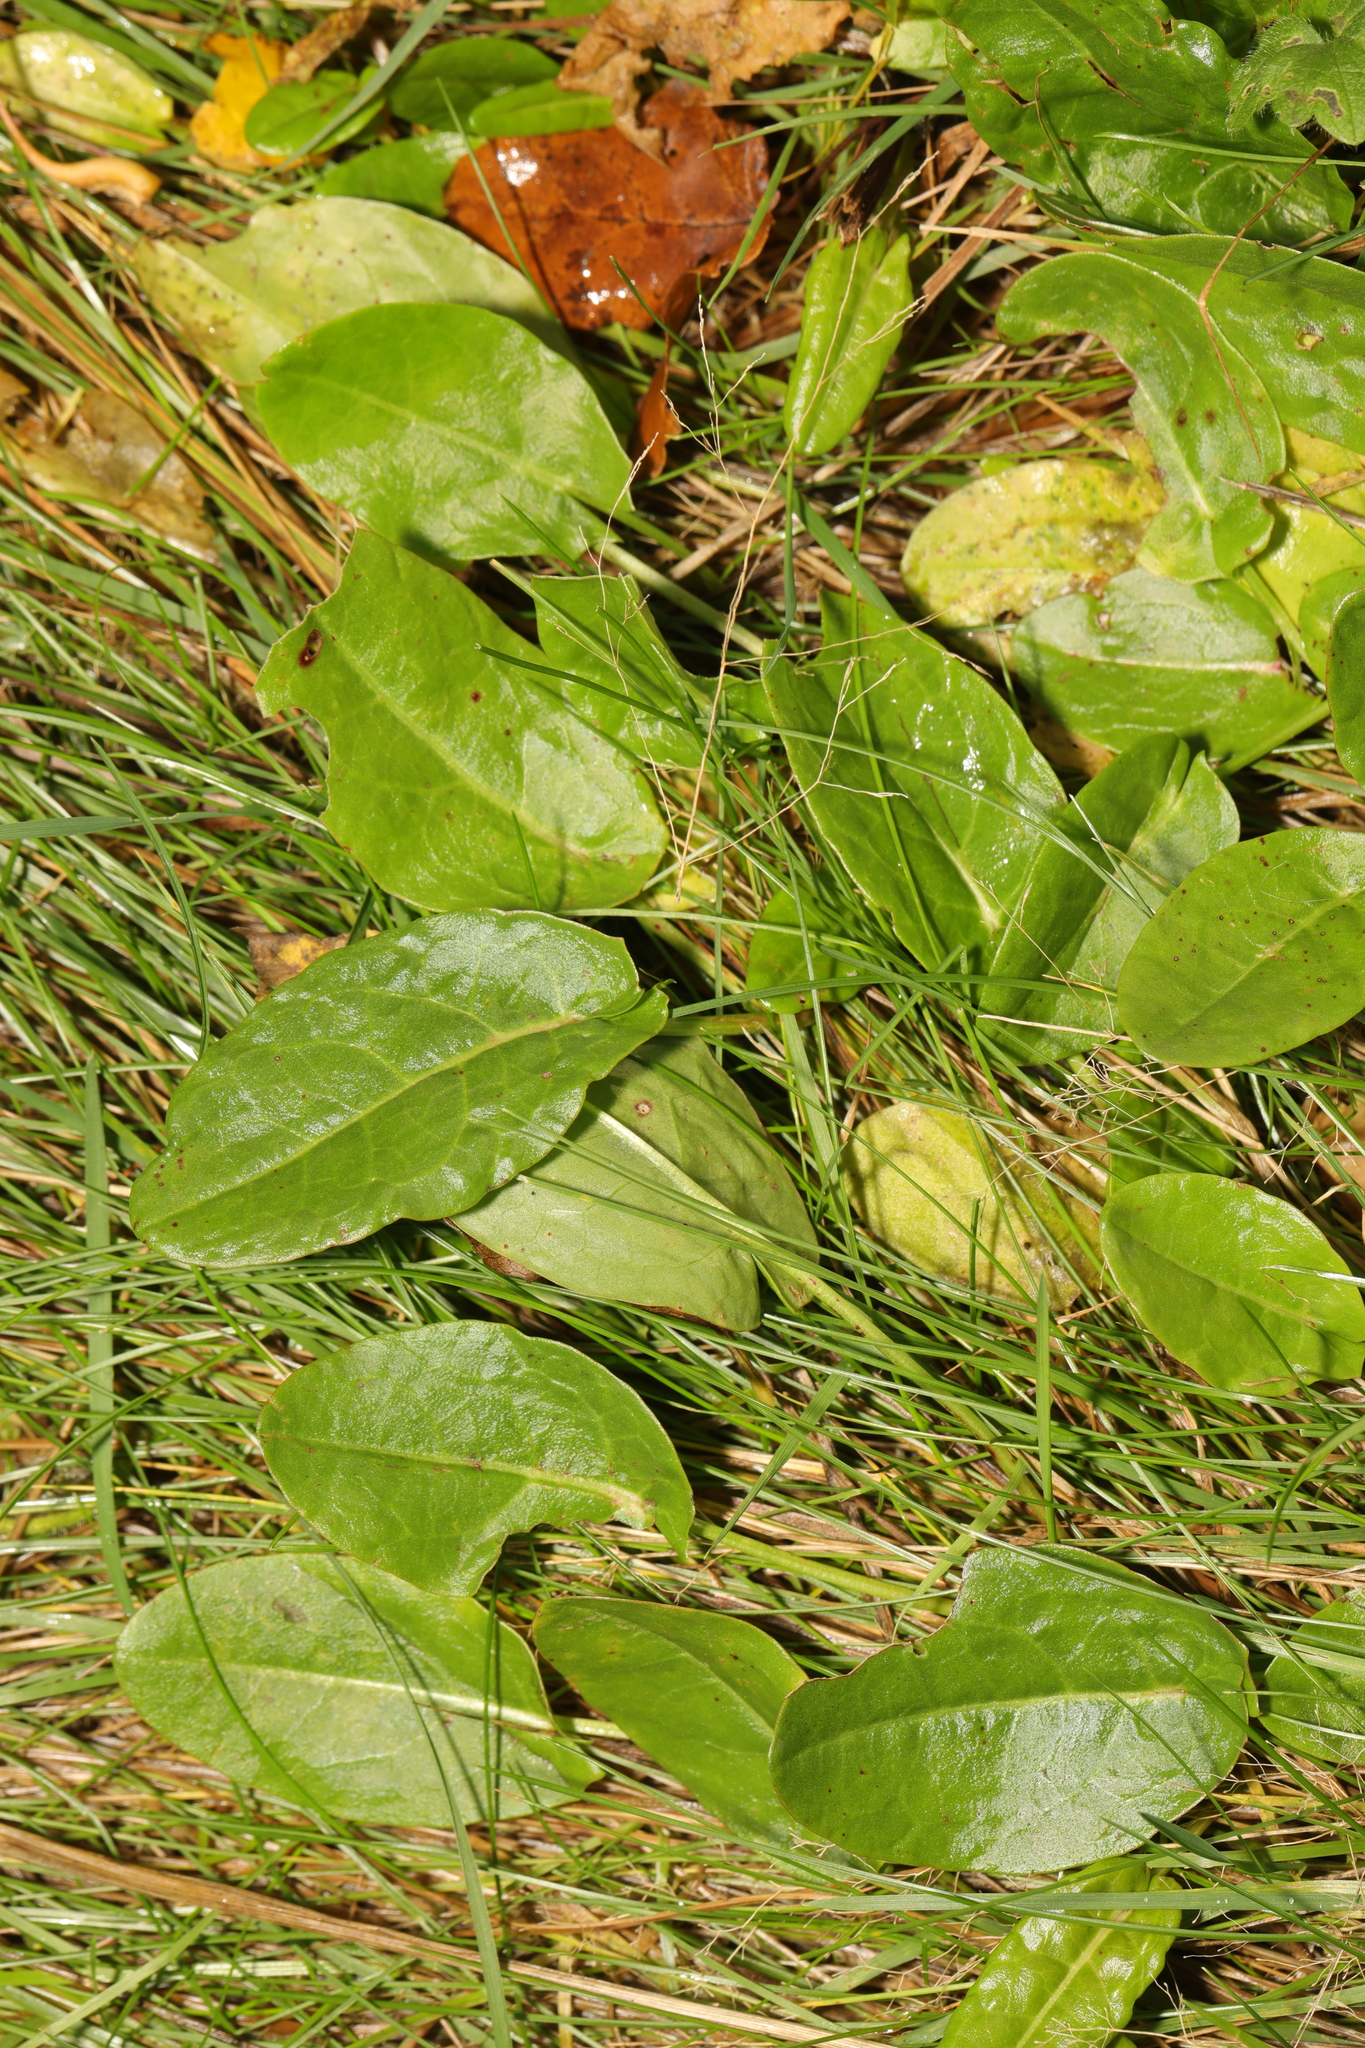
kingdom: Plantae
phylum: Tracheophyta
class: Magnoliopsida
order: Caryophyllales
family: Polygonaceae
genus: Rumex
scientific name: Rumex acetosa
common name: Garden sorrel
